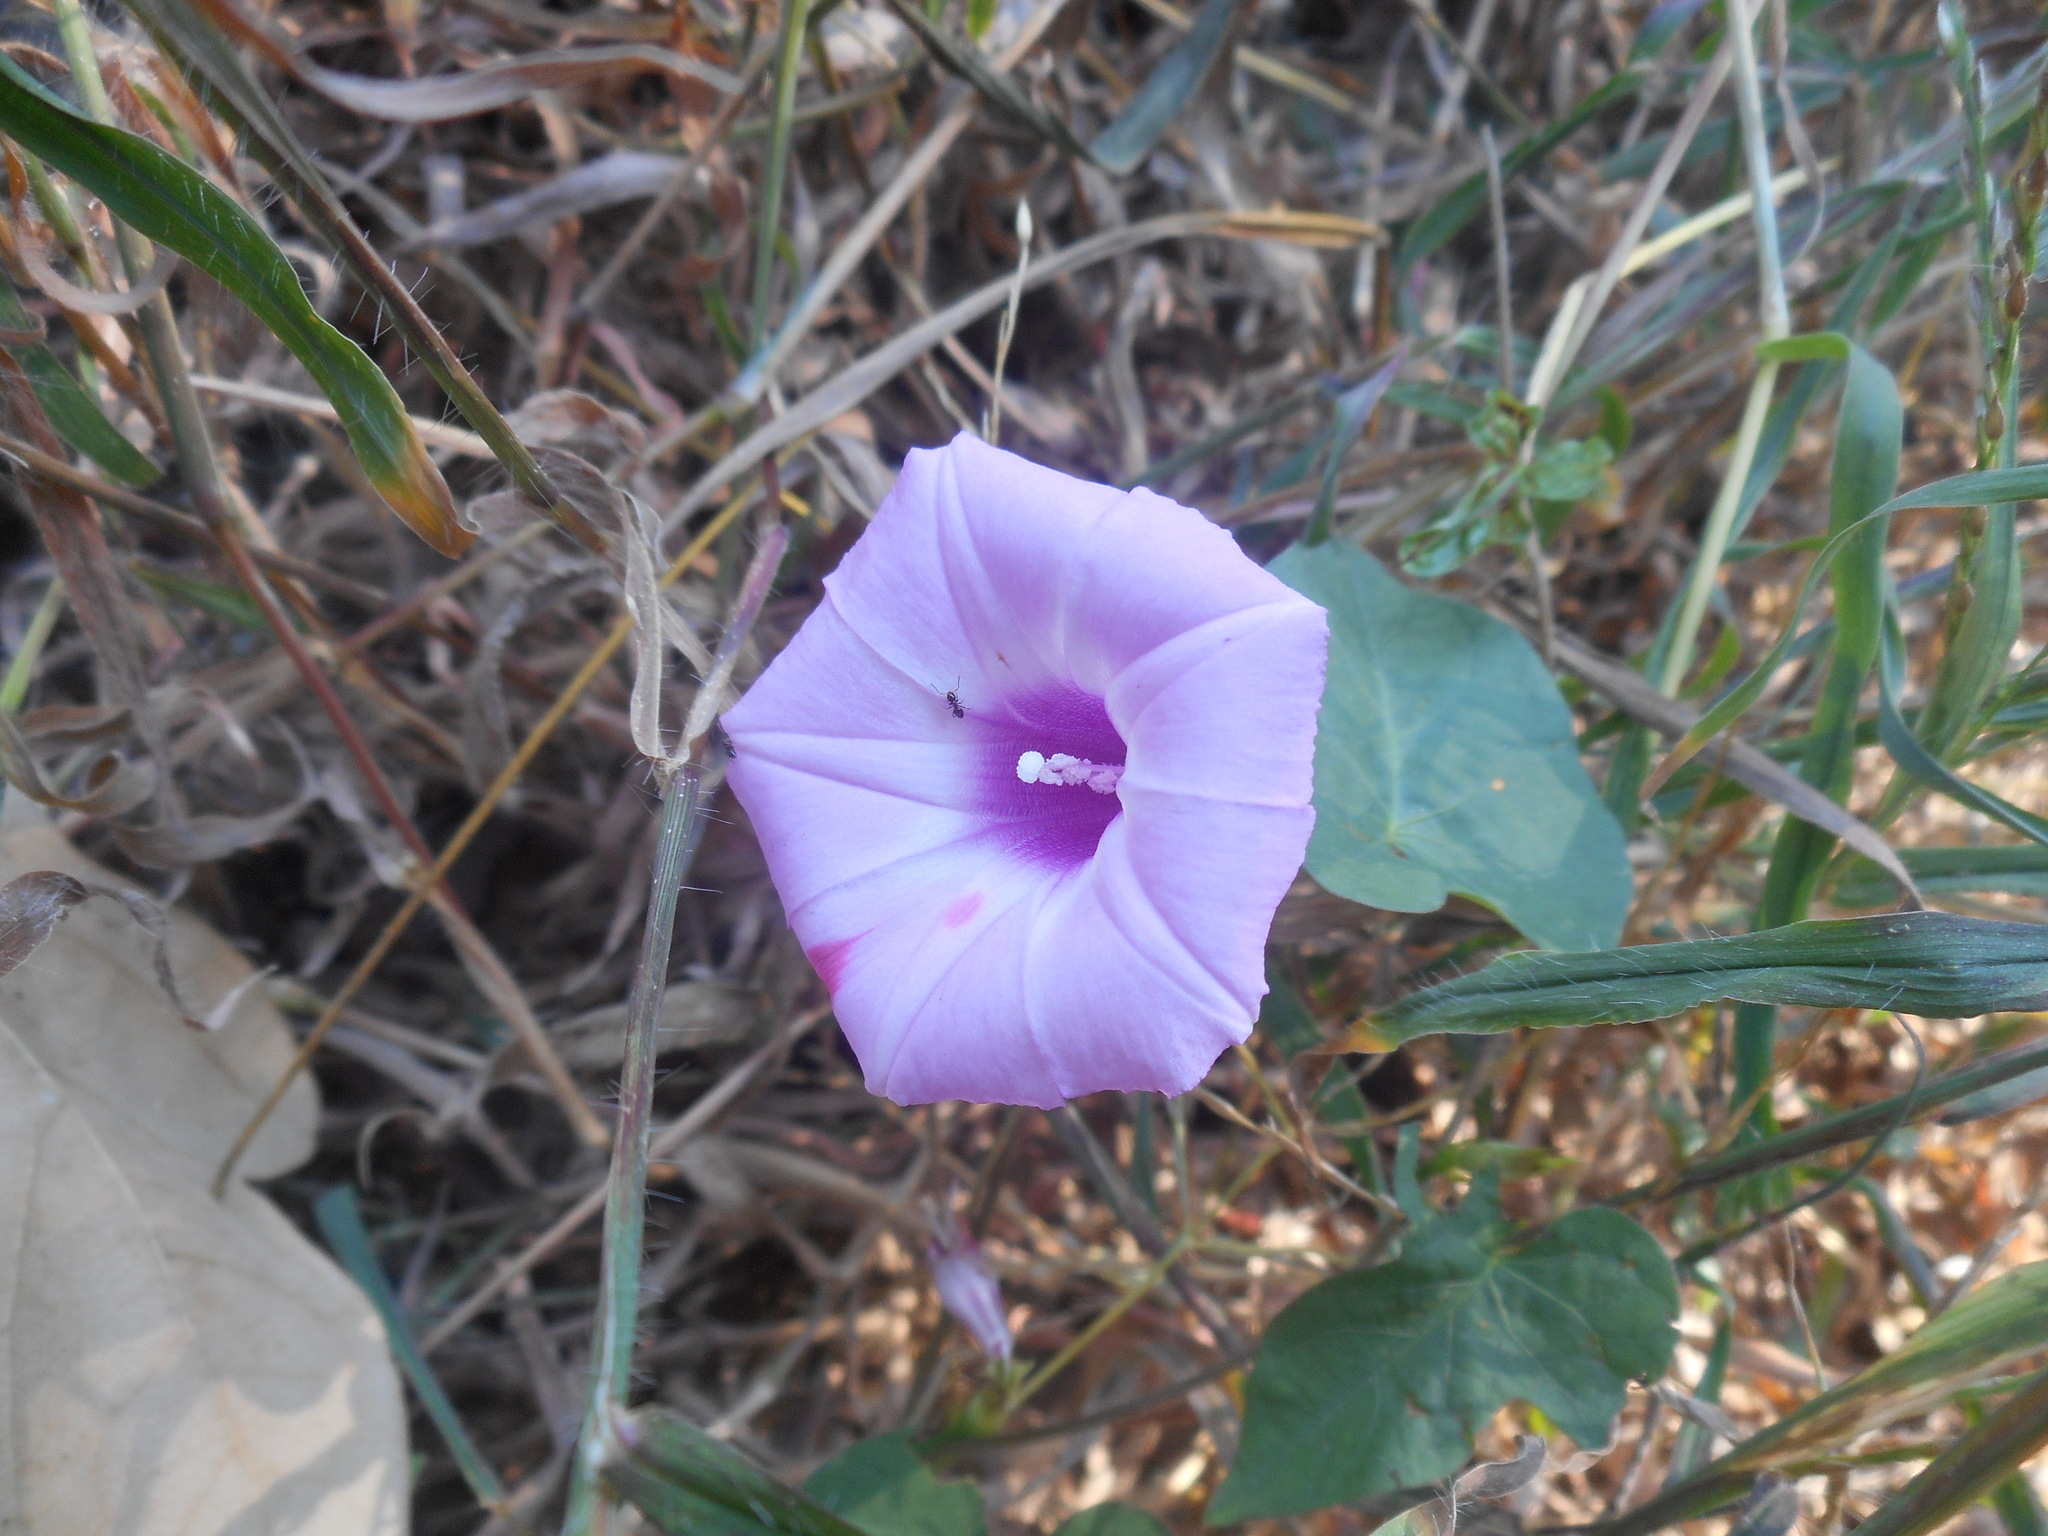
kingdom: Plantae
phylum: Tracheophyta
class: Magnoliopsida
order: Solanales
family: Convolvulaceae
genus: Ipomoea
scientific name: Ipomoea cordatotriloba
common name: Cotton morning glory
